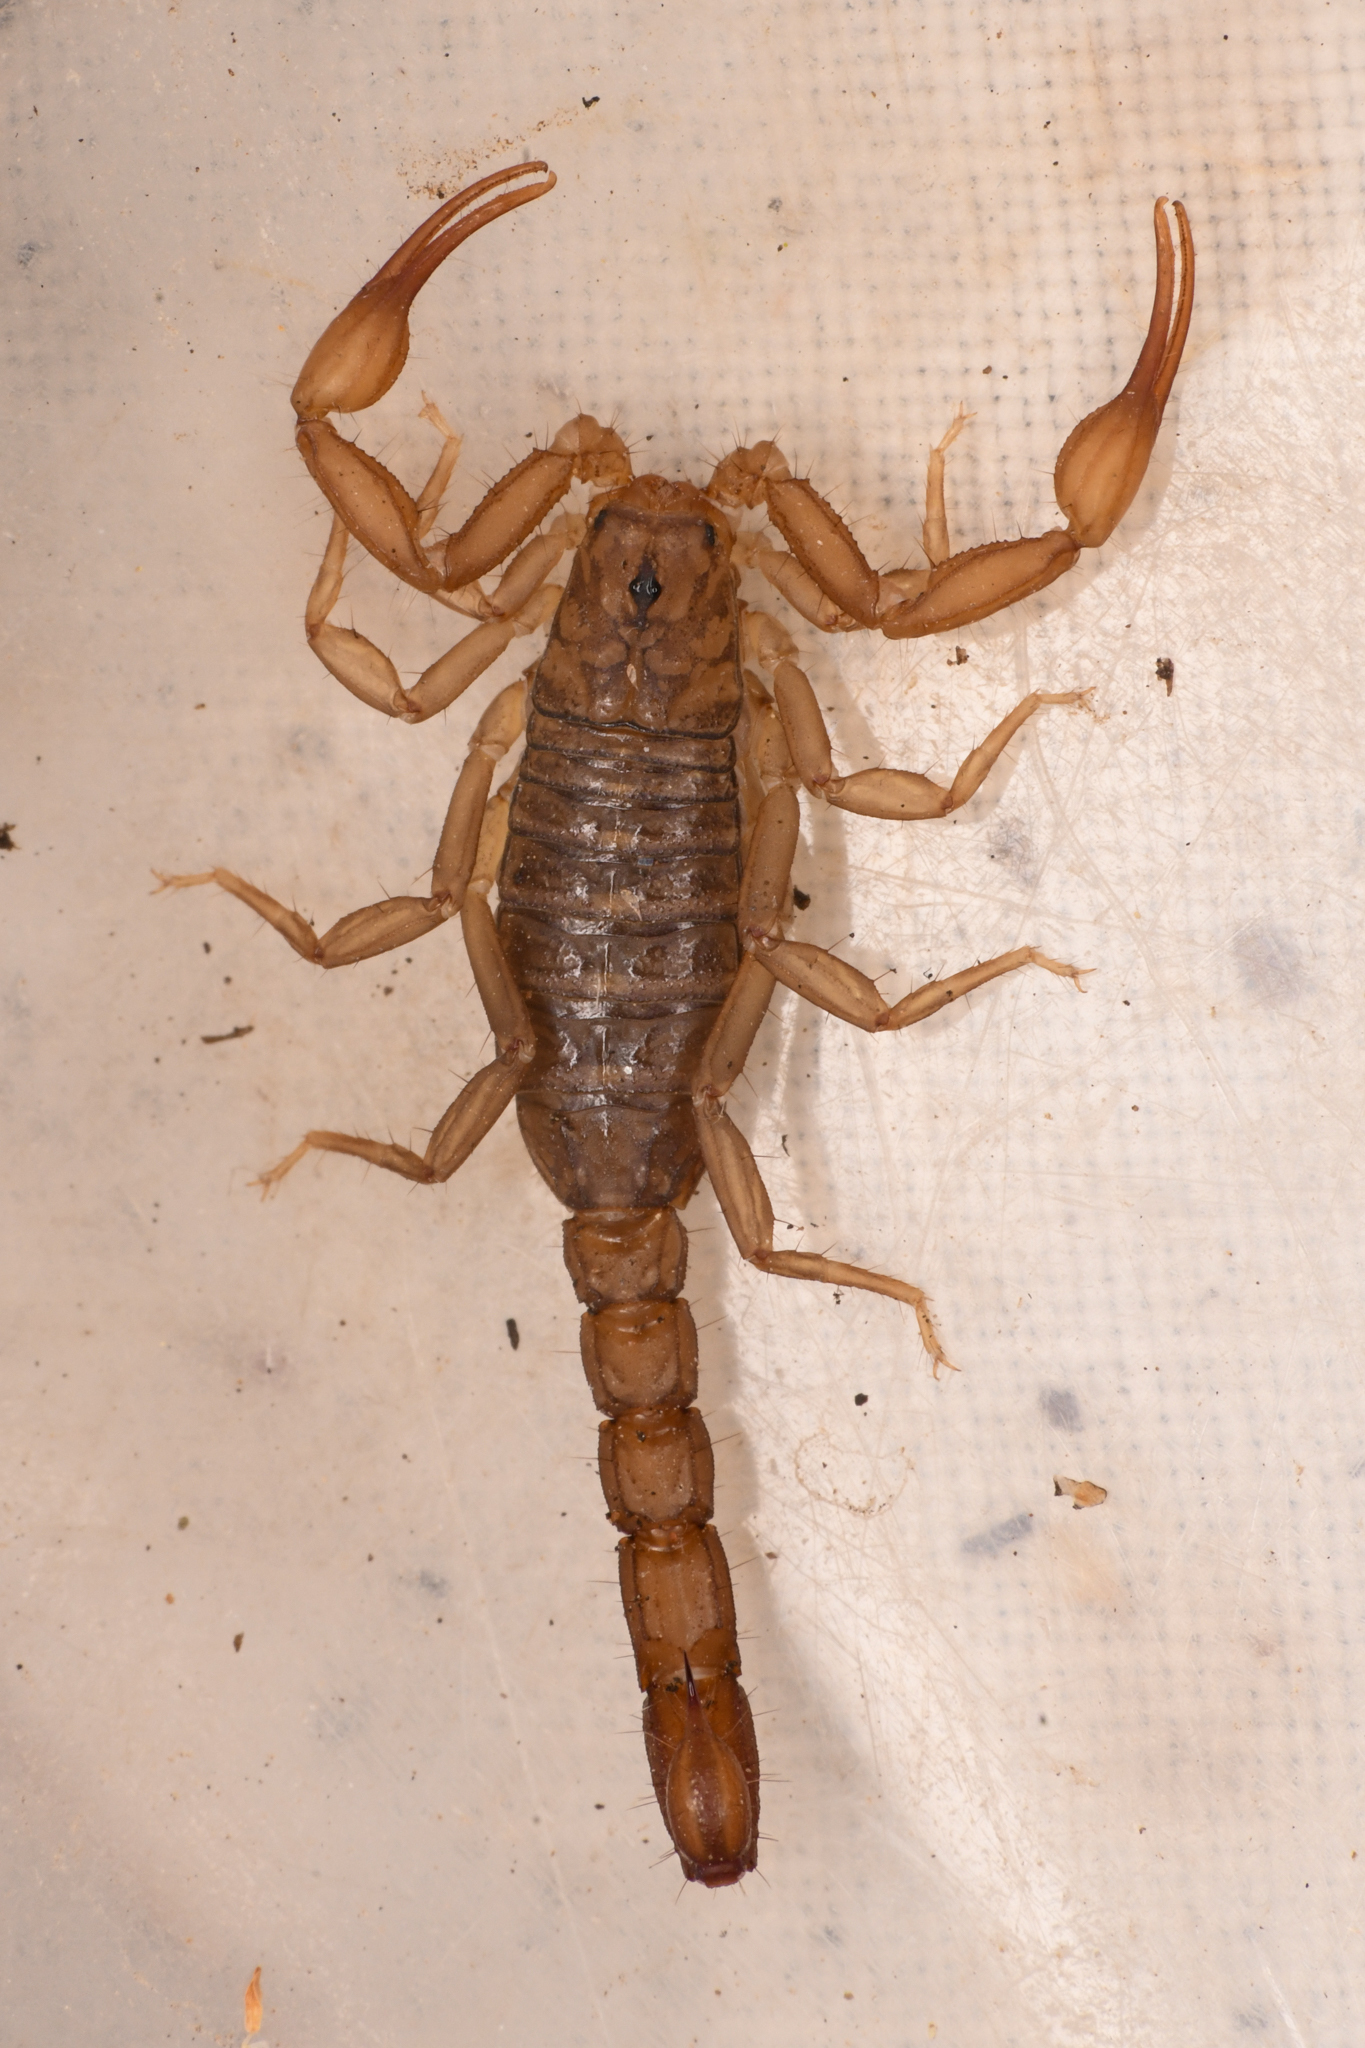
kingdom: Animalia
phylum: Arthropoda
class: Arachnida
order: Scorpiones
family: Vaejovidae
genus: Serradigitus
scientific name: Serradigitus gertschi
